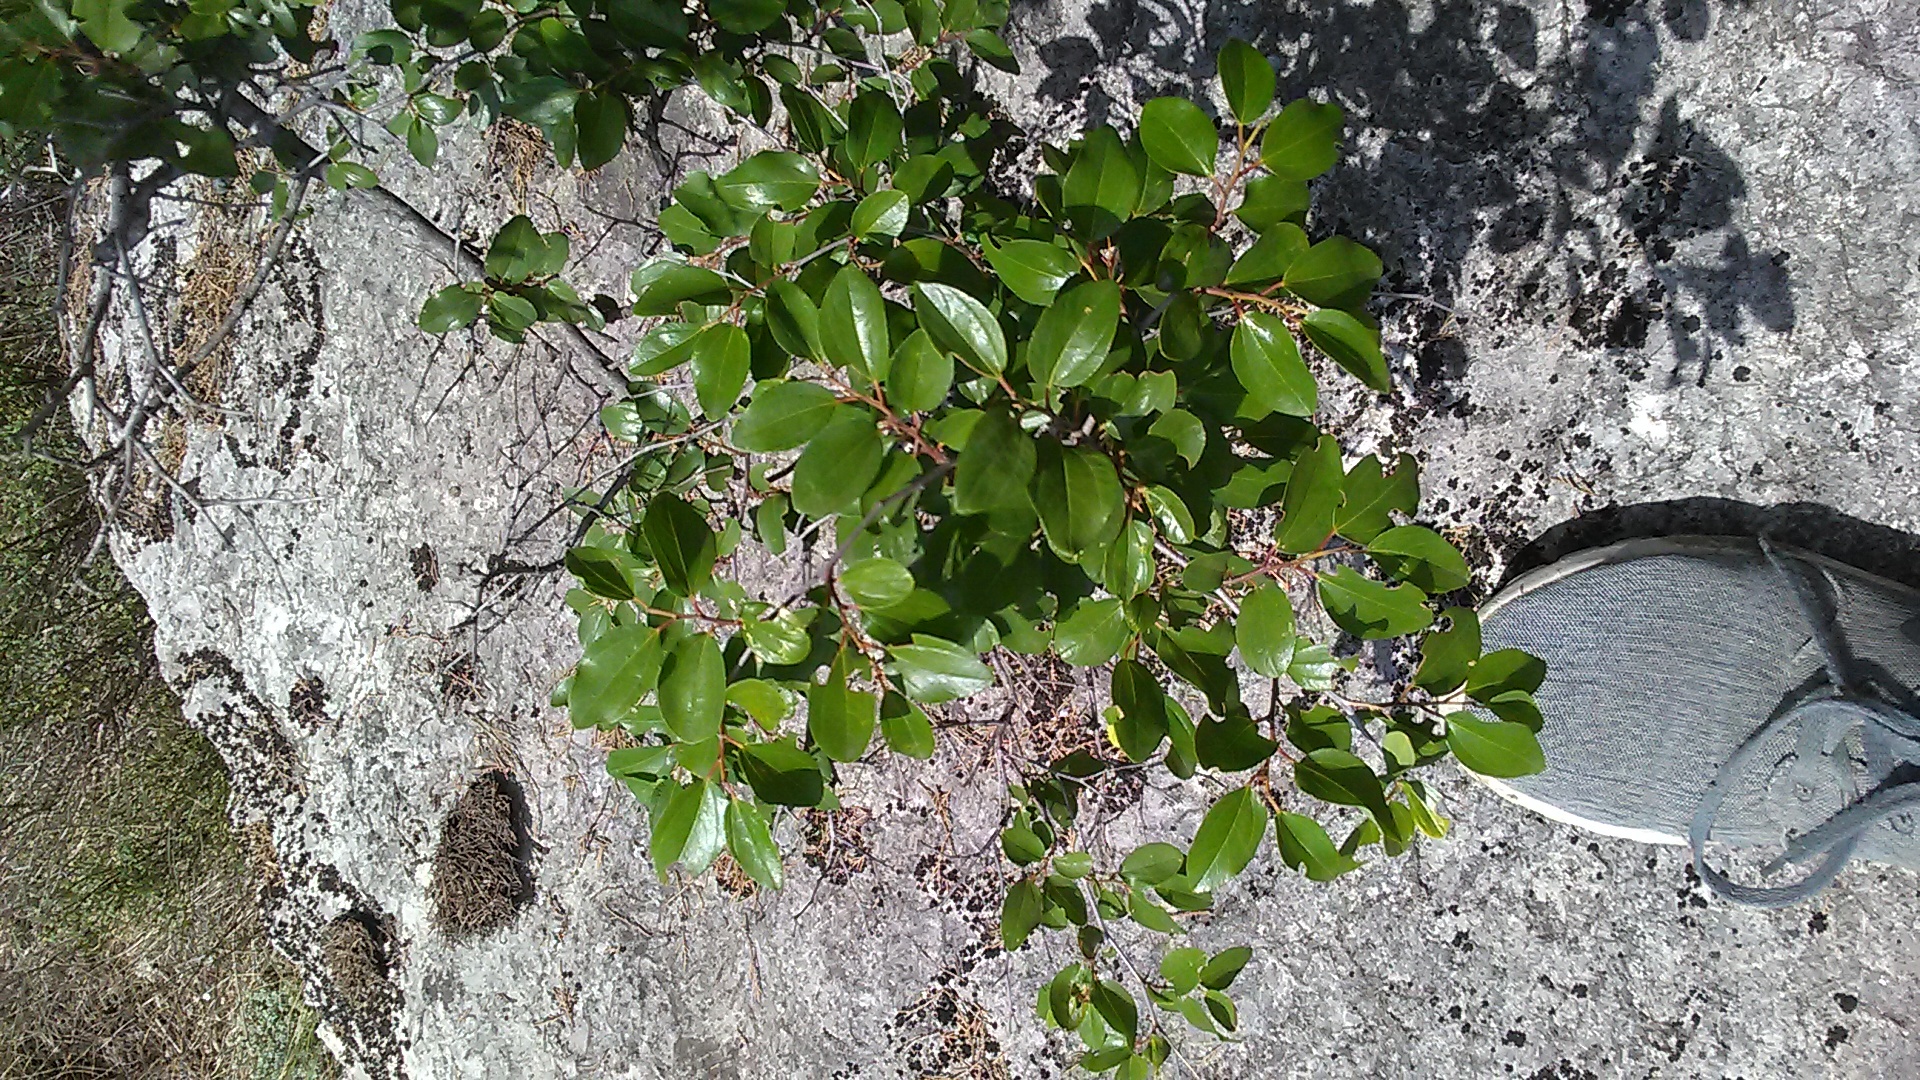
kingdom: Plantae
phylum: Tracheophyta
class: Magnoliopsida
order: Rosales
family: Rhamnaceae
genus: Paliurus
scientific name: Paliurus spina-christi
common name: Jeruselem thorn
